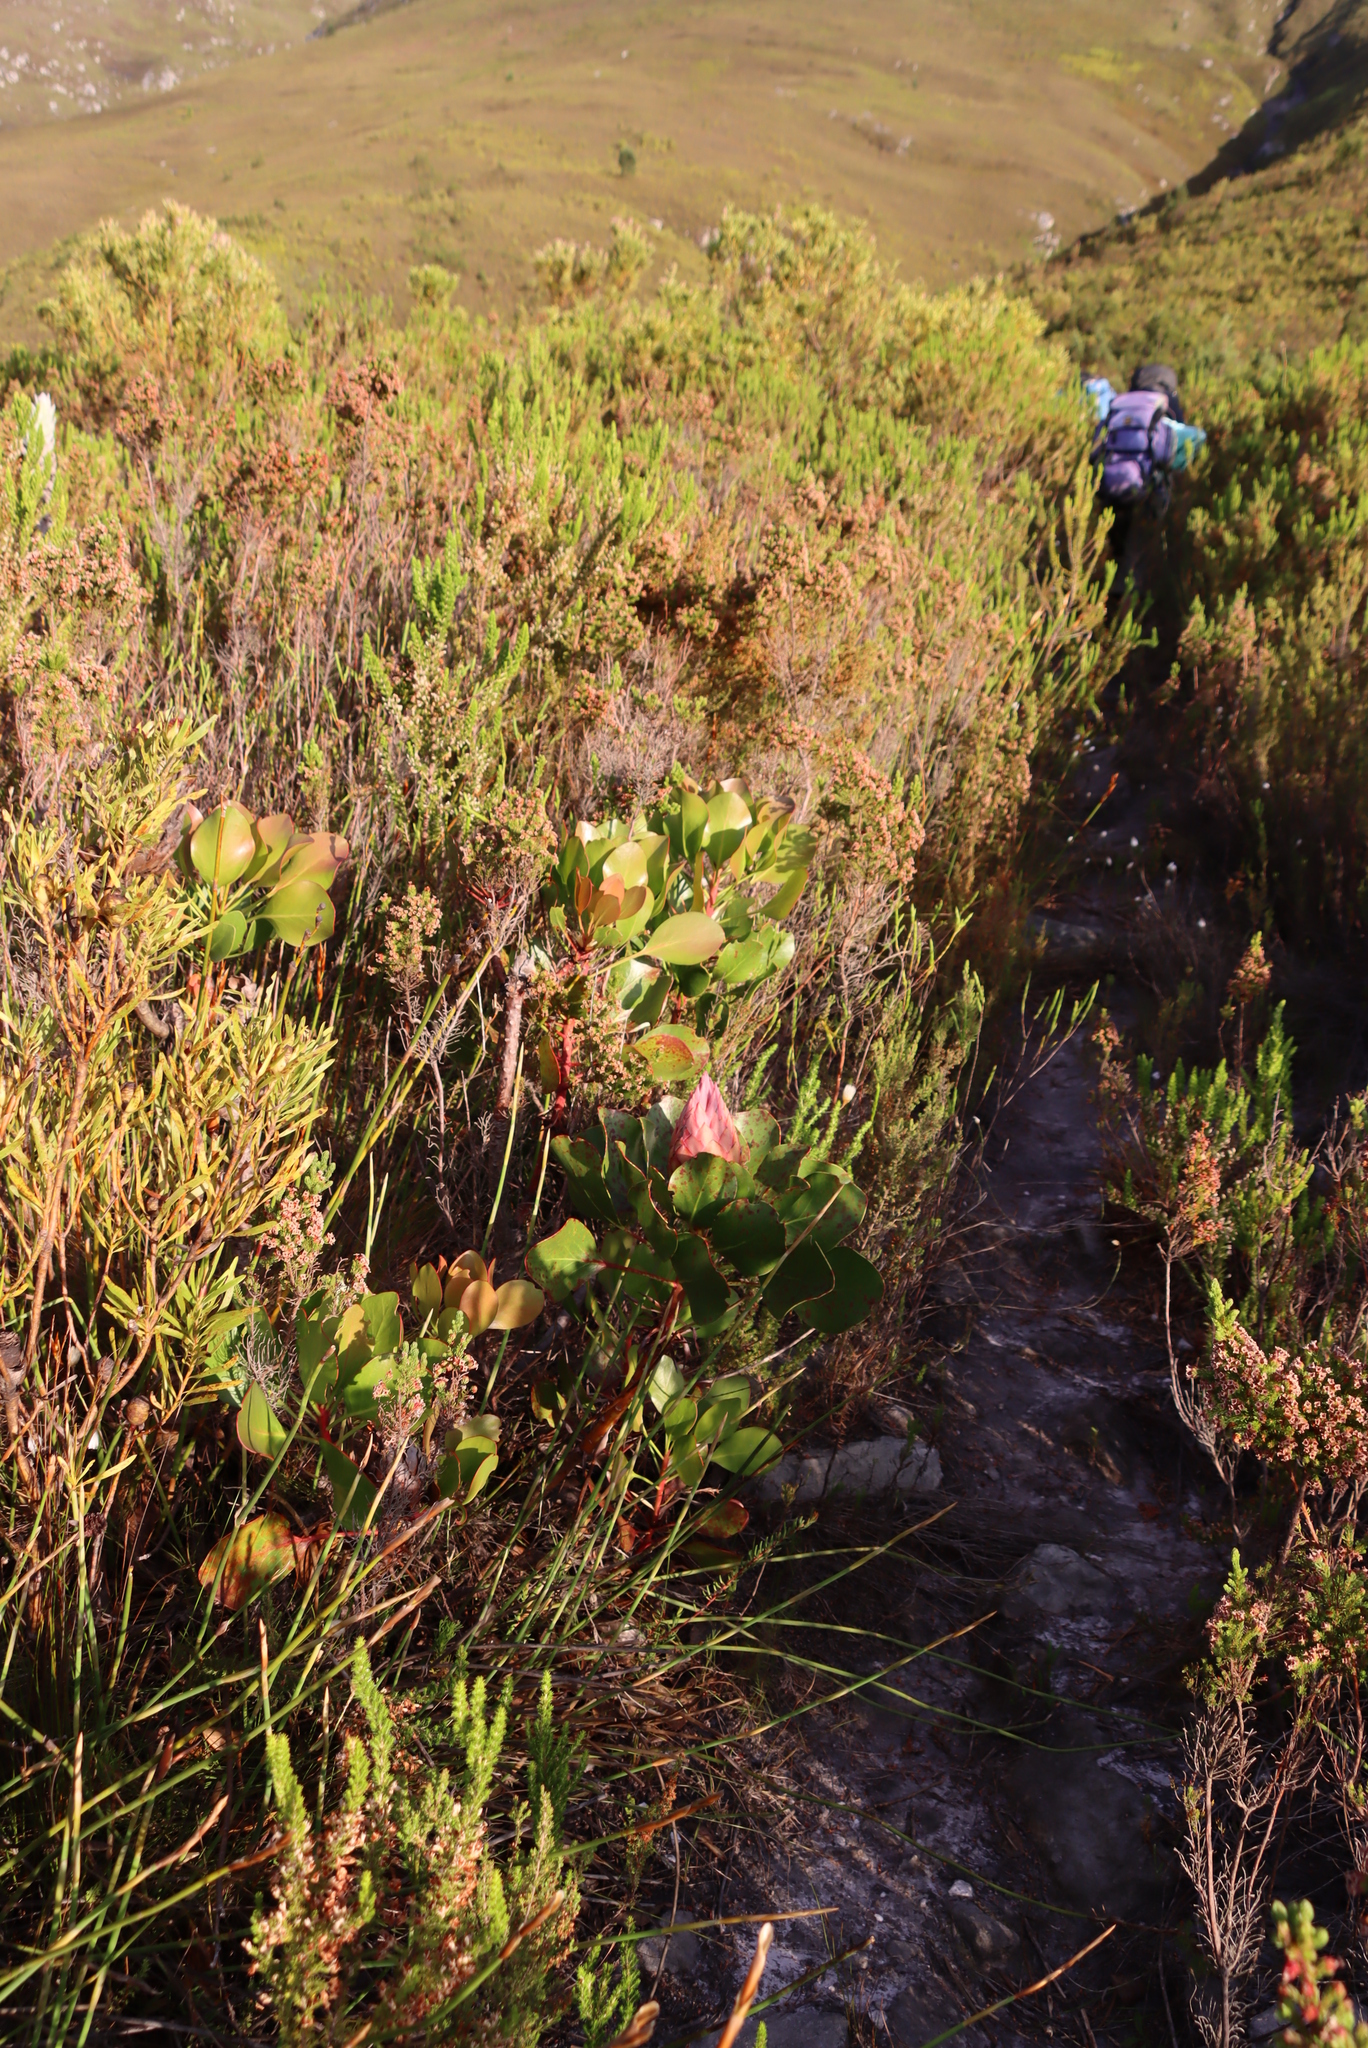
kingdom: Plantae
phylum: Tracheophyta
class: Magnoliopsida
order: Proteales
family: Proteaceae
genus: Protea
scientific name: Protea cynaroides
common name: King protea
